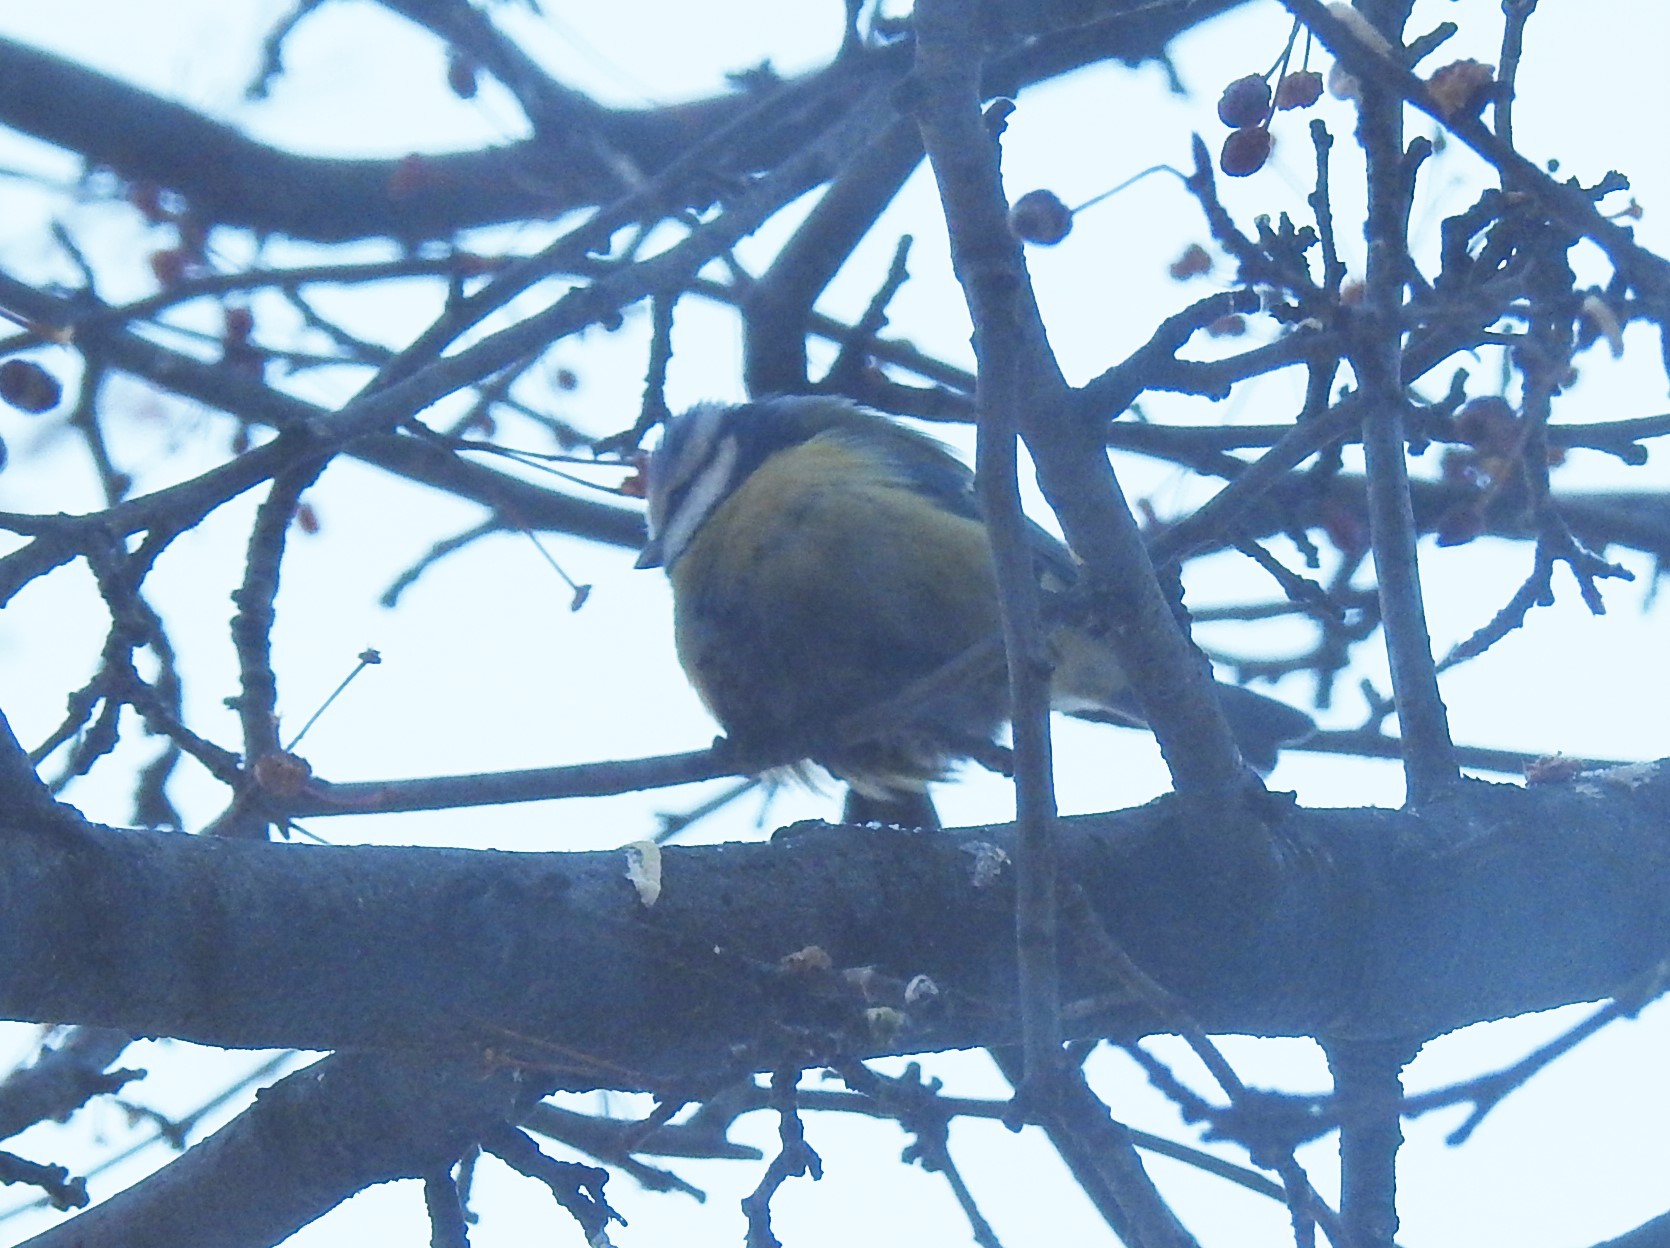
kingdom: Animalia
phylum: Chordata
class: Aves
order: Passeriformes
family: Paridae
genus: Cyanistes
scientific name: Cyanistes caeruleus
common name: Eurasian blue tit
